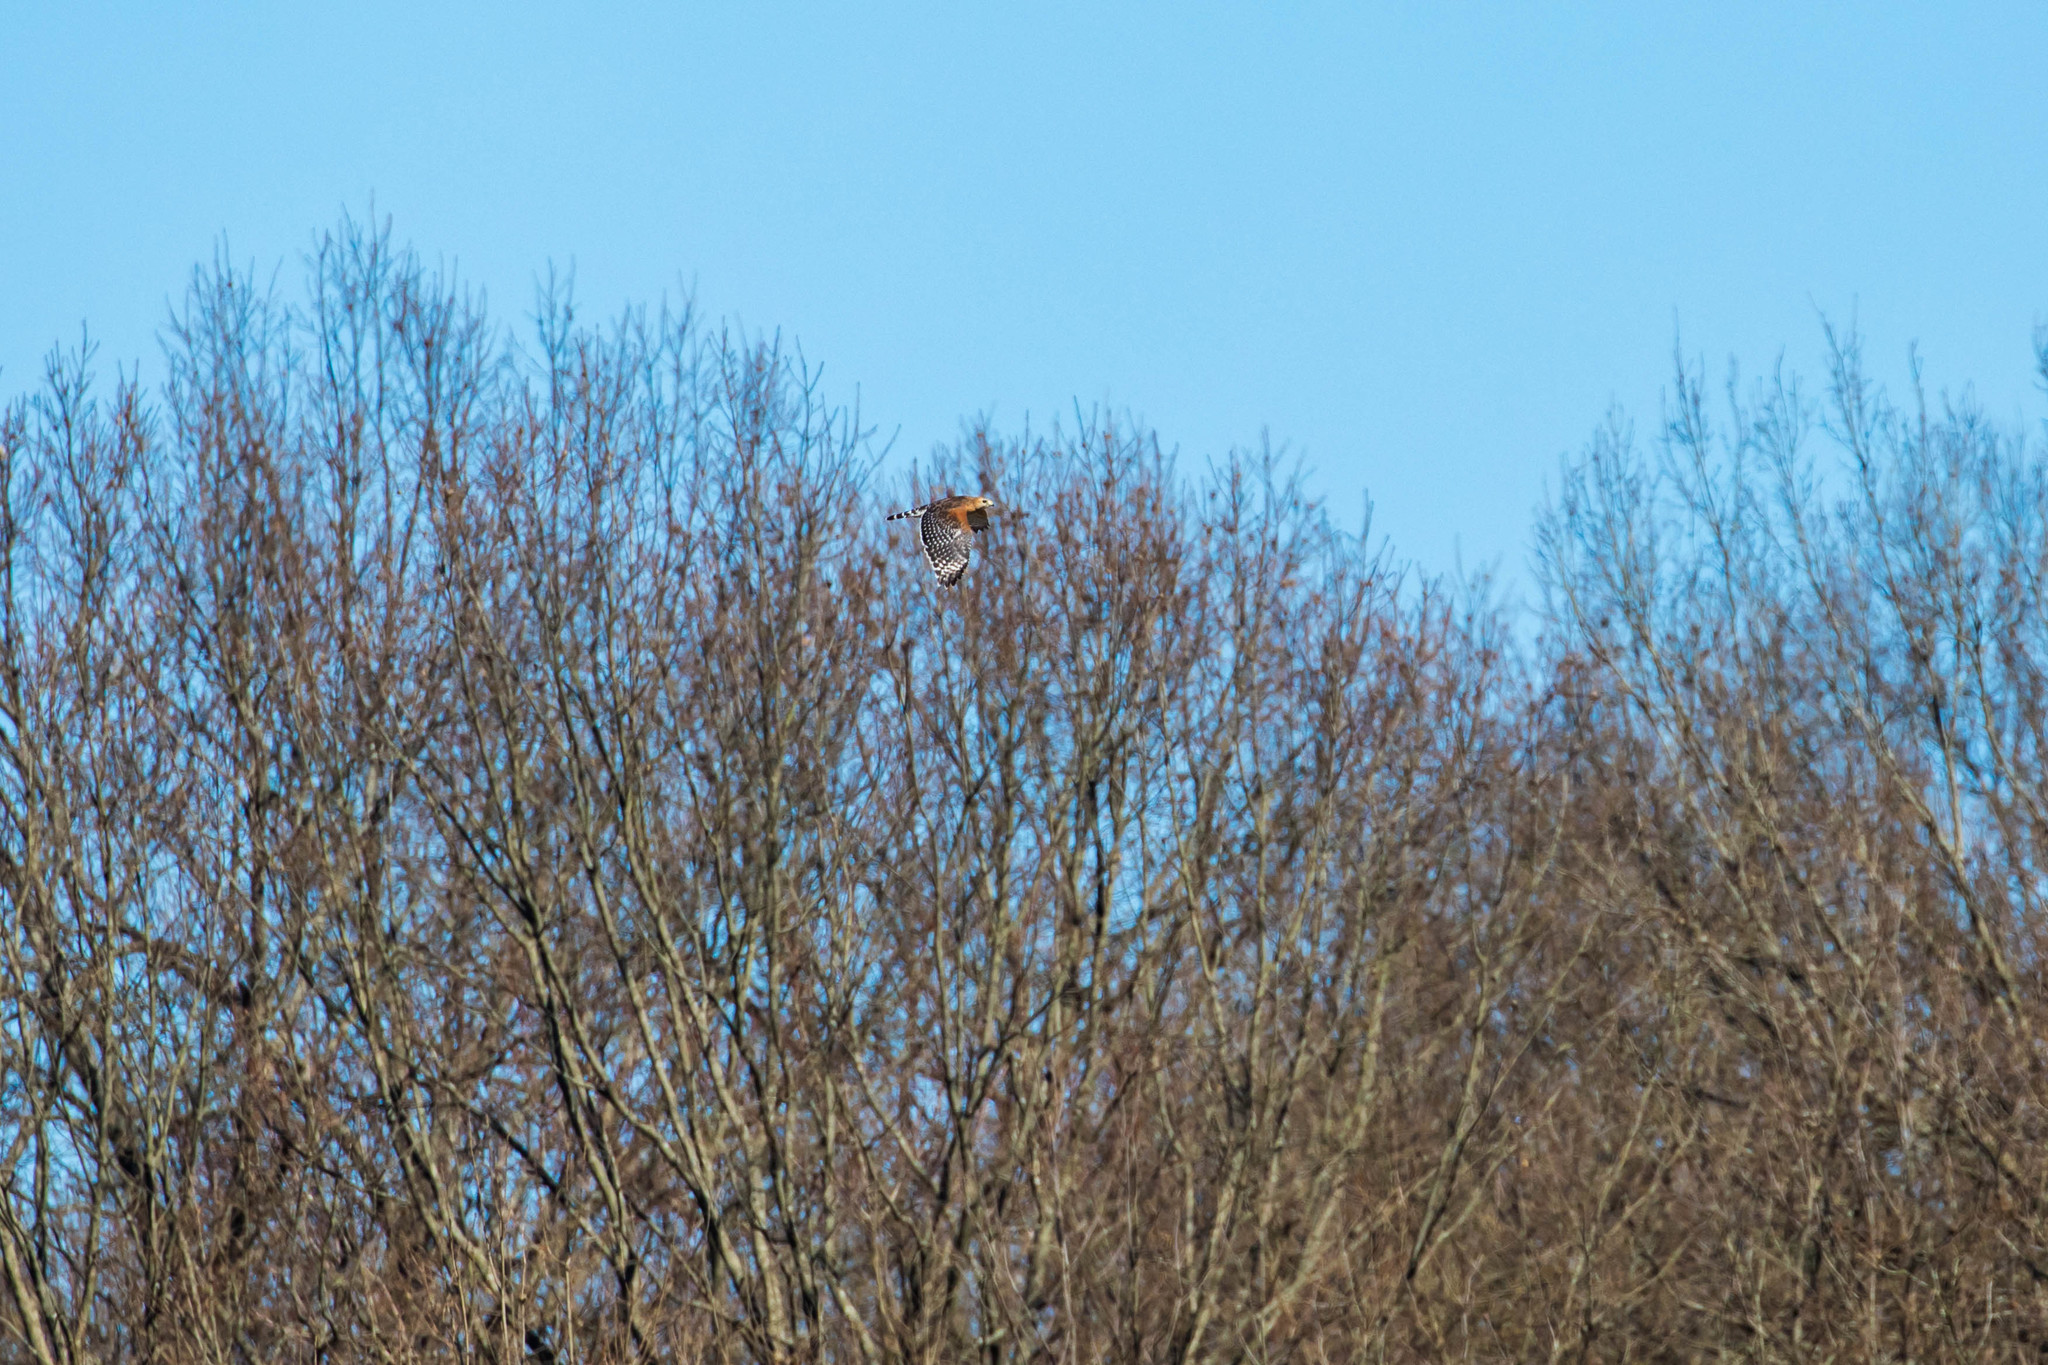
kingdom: Animalia
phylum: Chordata
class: Aves
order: Accipitriformes
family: Accipitridae
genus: Buteo
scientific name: Buteo lineatus
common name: Red-shouldered hawk
